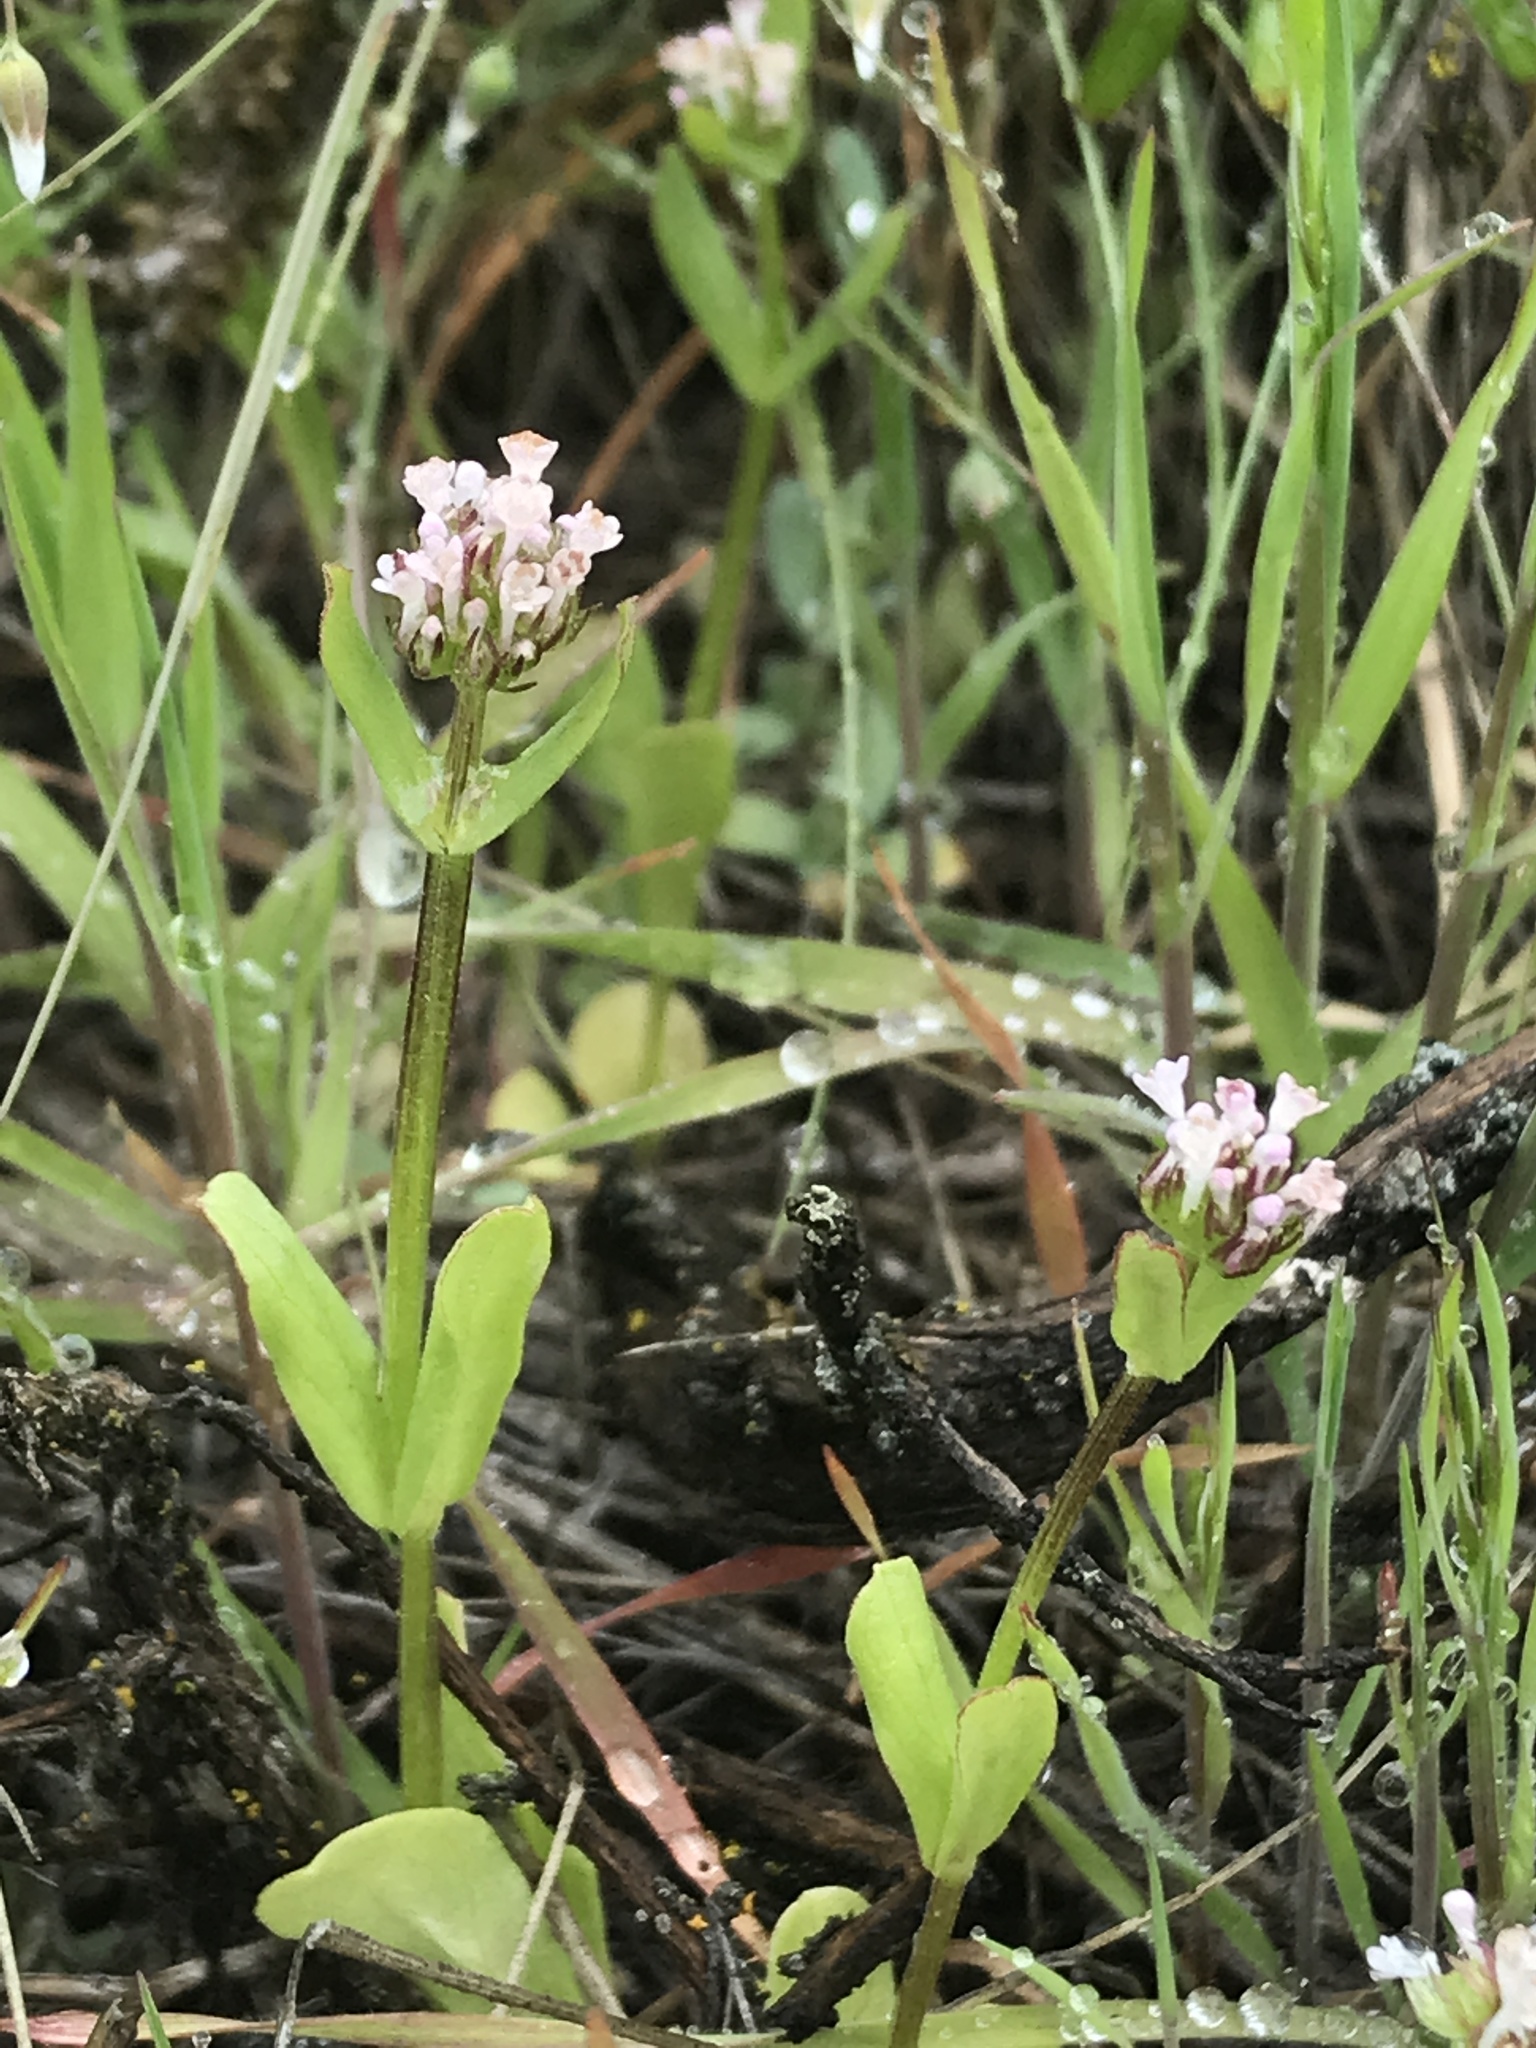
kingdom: Plantae
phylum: Tracheophyta
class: Magnoliopsida
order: Dipsacales
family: Caprifoliaceae
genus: Plectritis
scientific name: Plectritis macroptera
